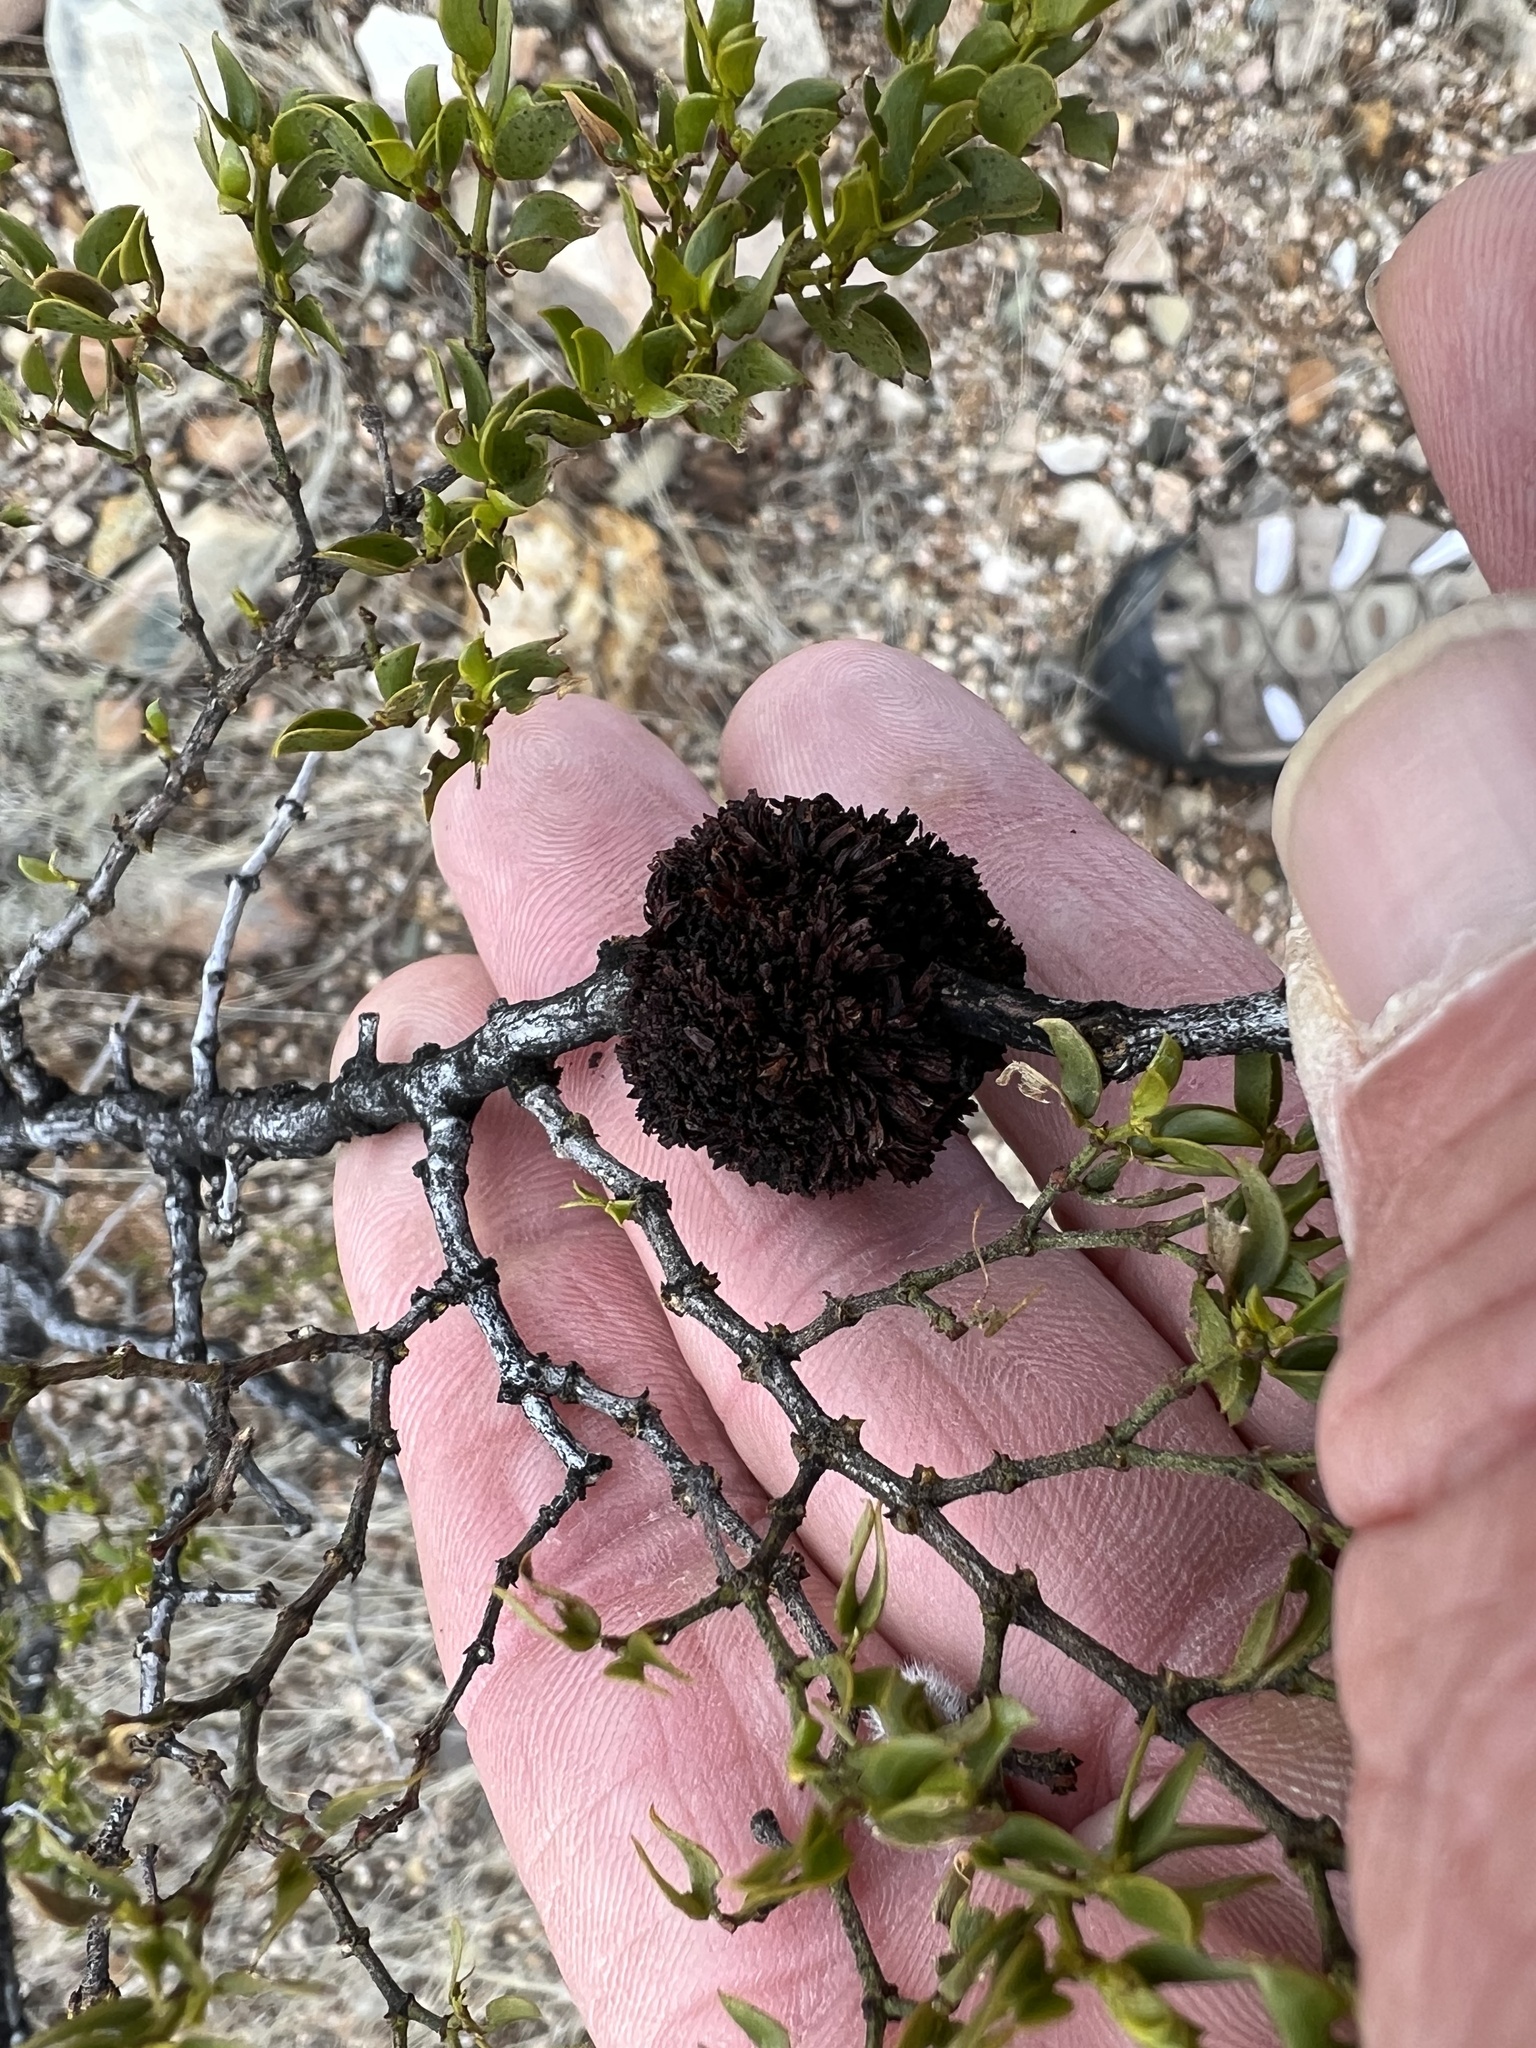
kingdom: Animalia
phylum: Arthropoda
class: Insecta
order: Diptera
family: Cecidomyiidae
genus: Asphondylia
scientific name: Asphondylia auripila
